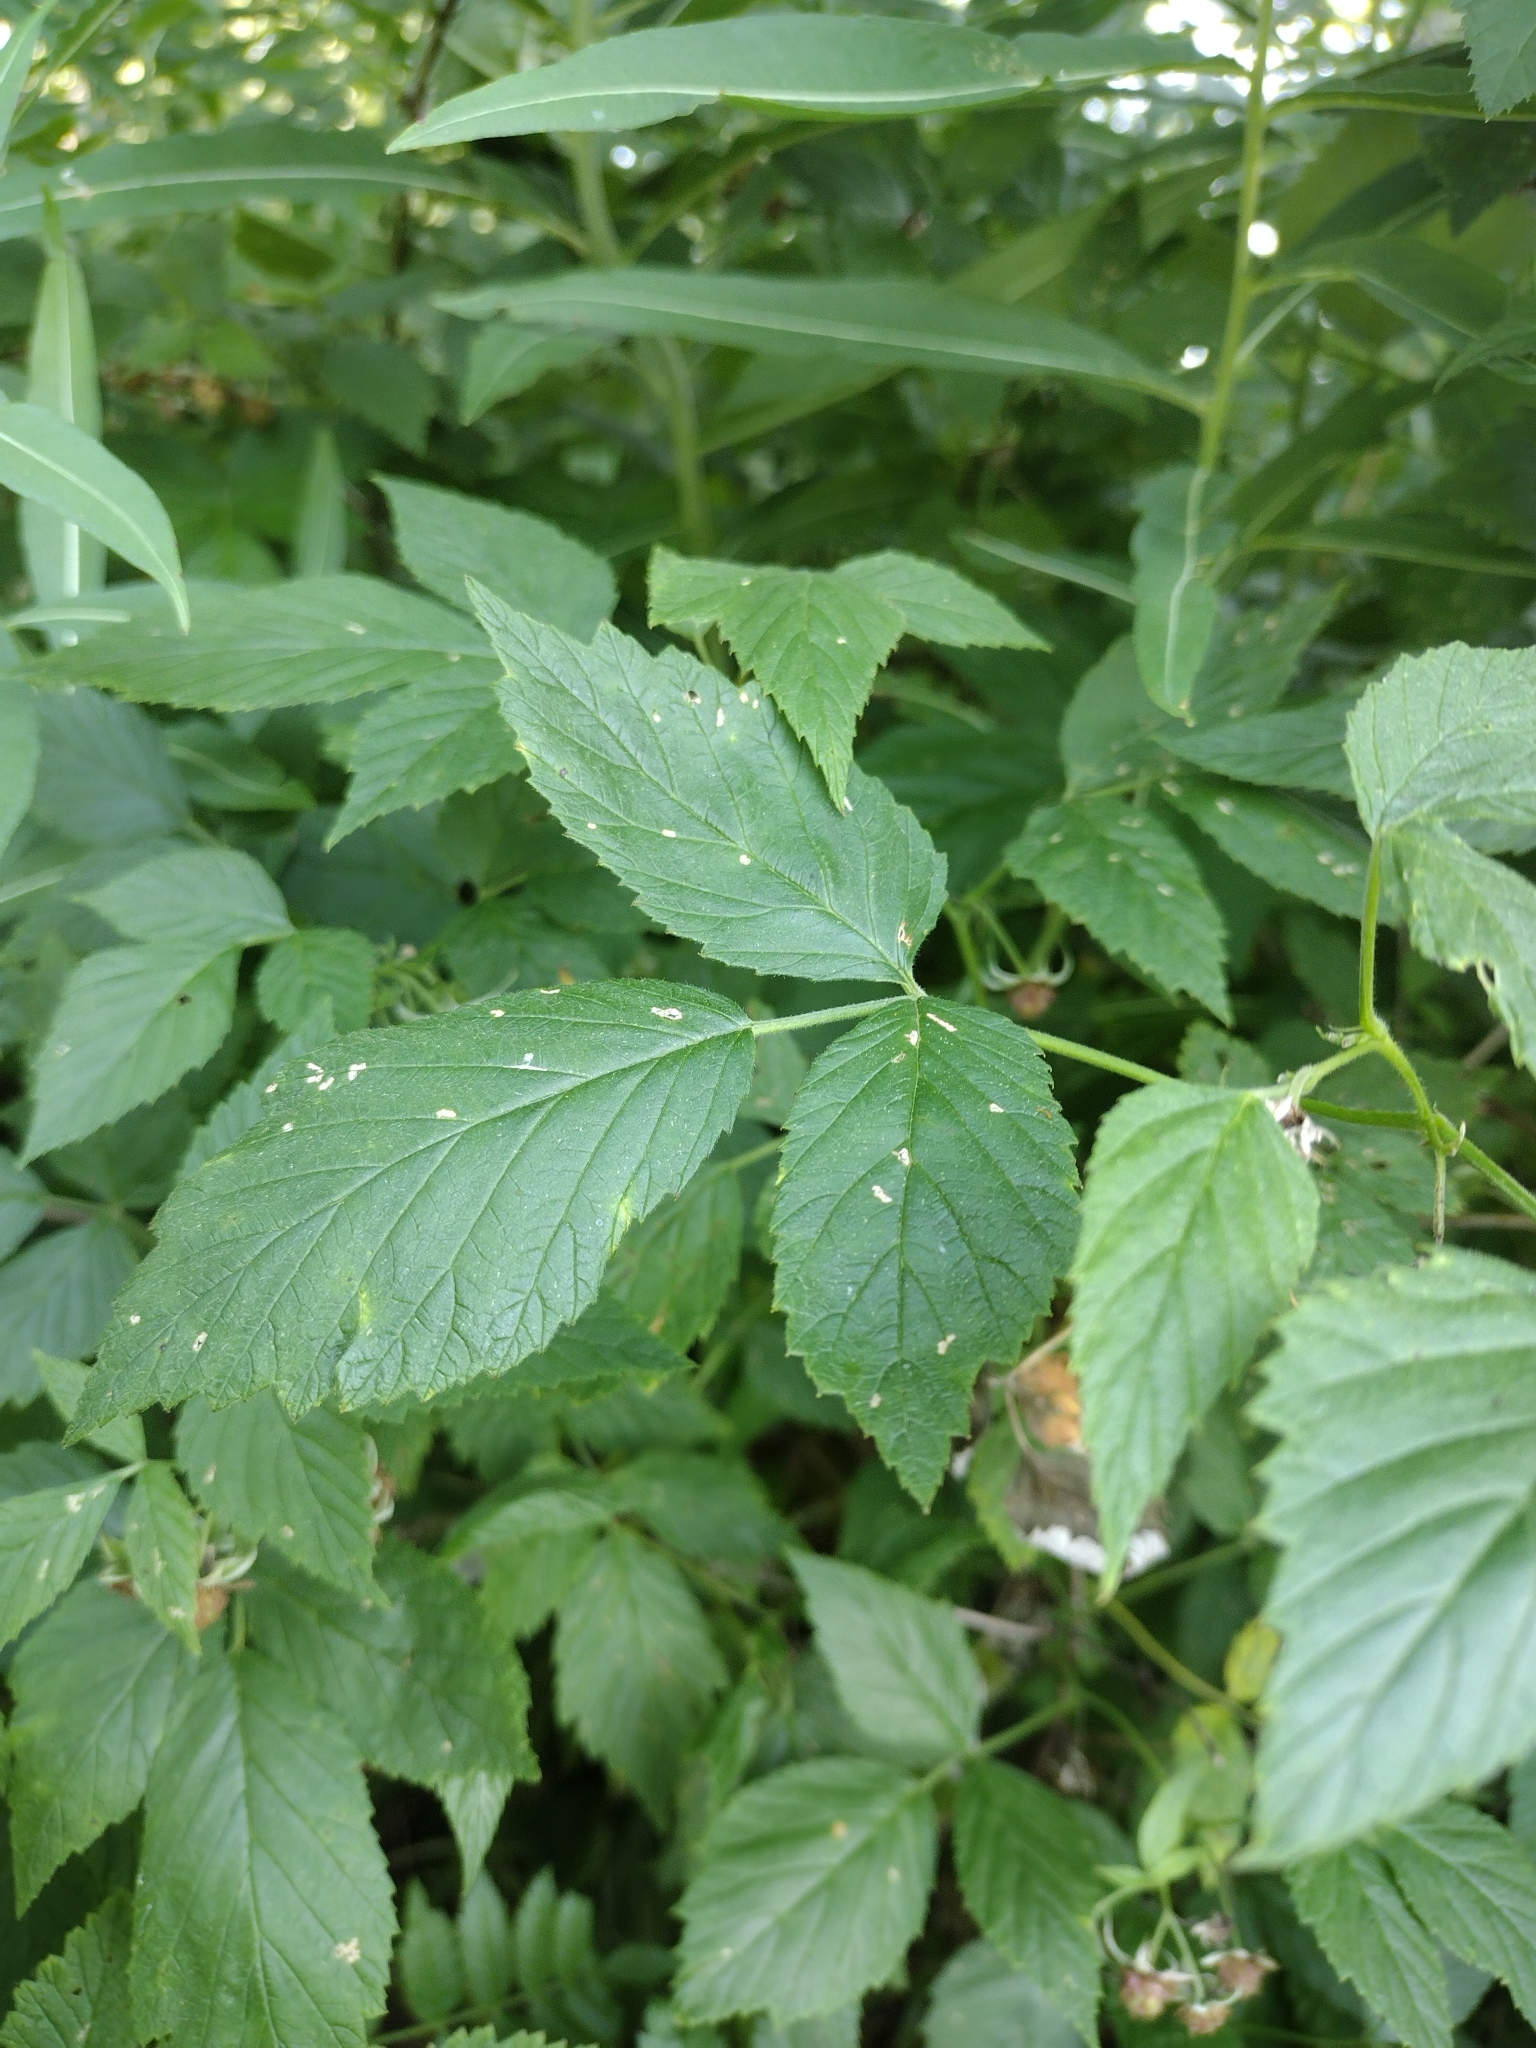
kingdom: Plantae
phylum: Tracheophyta
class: Magnoliopsida
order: Rosales
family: Rosaceae
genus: Rubus
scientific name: Rubus idaeus
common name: Raspberry
